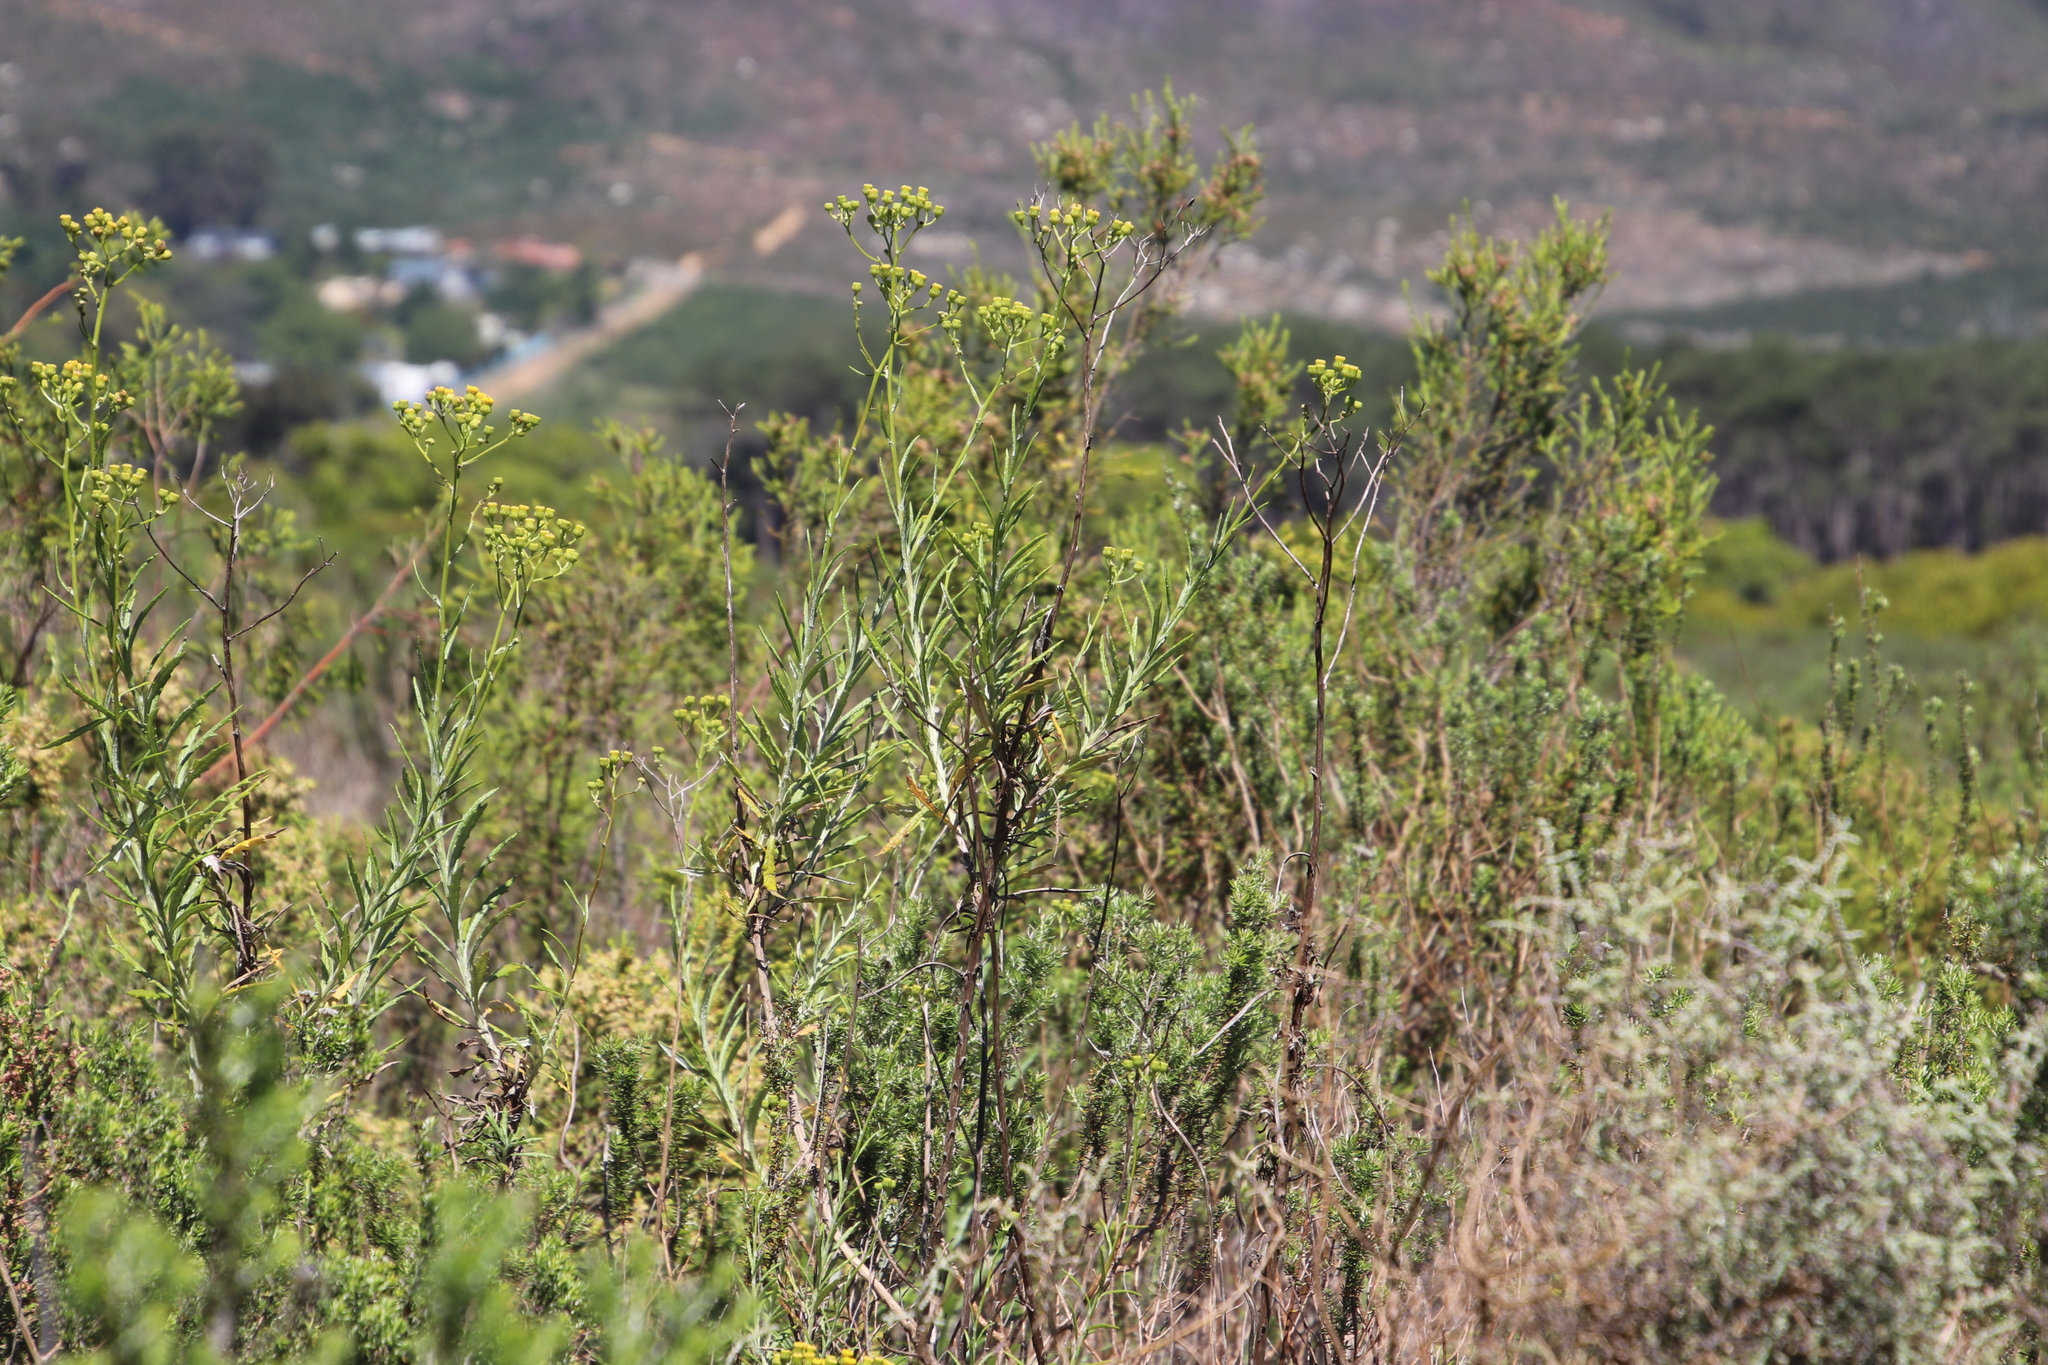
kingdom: Plantae
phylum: Tracheophyta
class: Magnoliopsida
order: Asterales
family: Asteraceae
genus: Senecio
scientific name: Senecio pterophorus
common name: Shoddy ragwort
